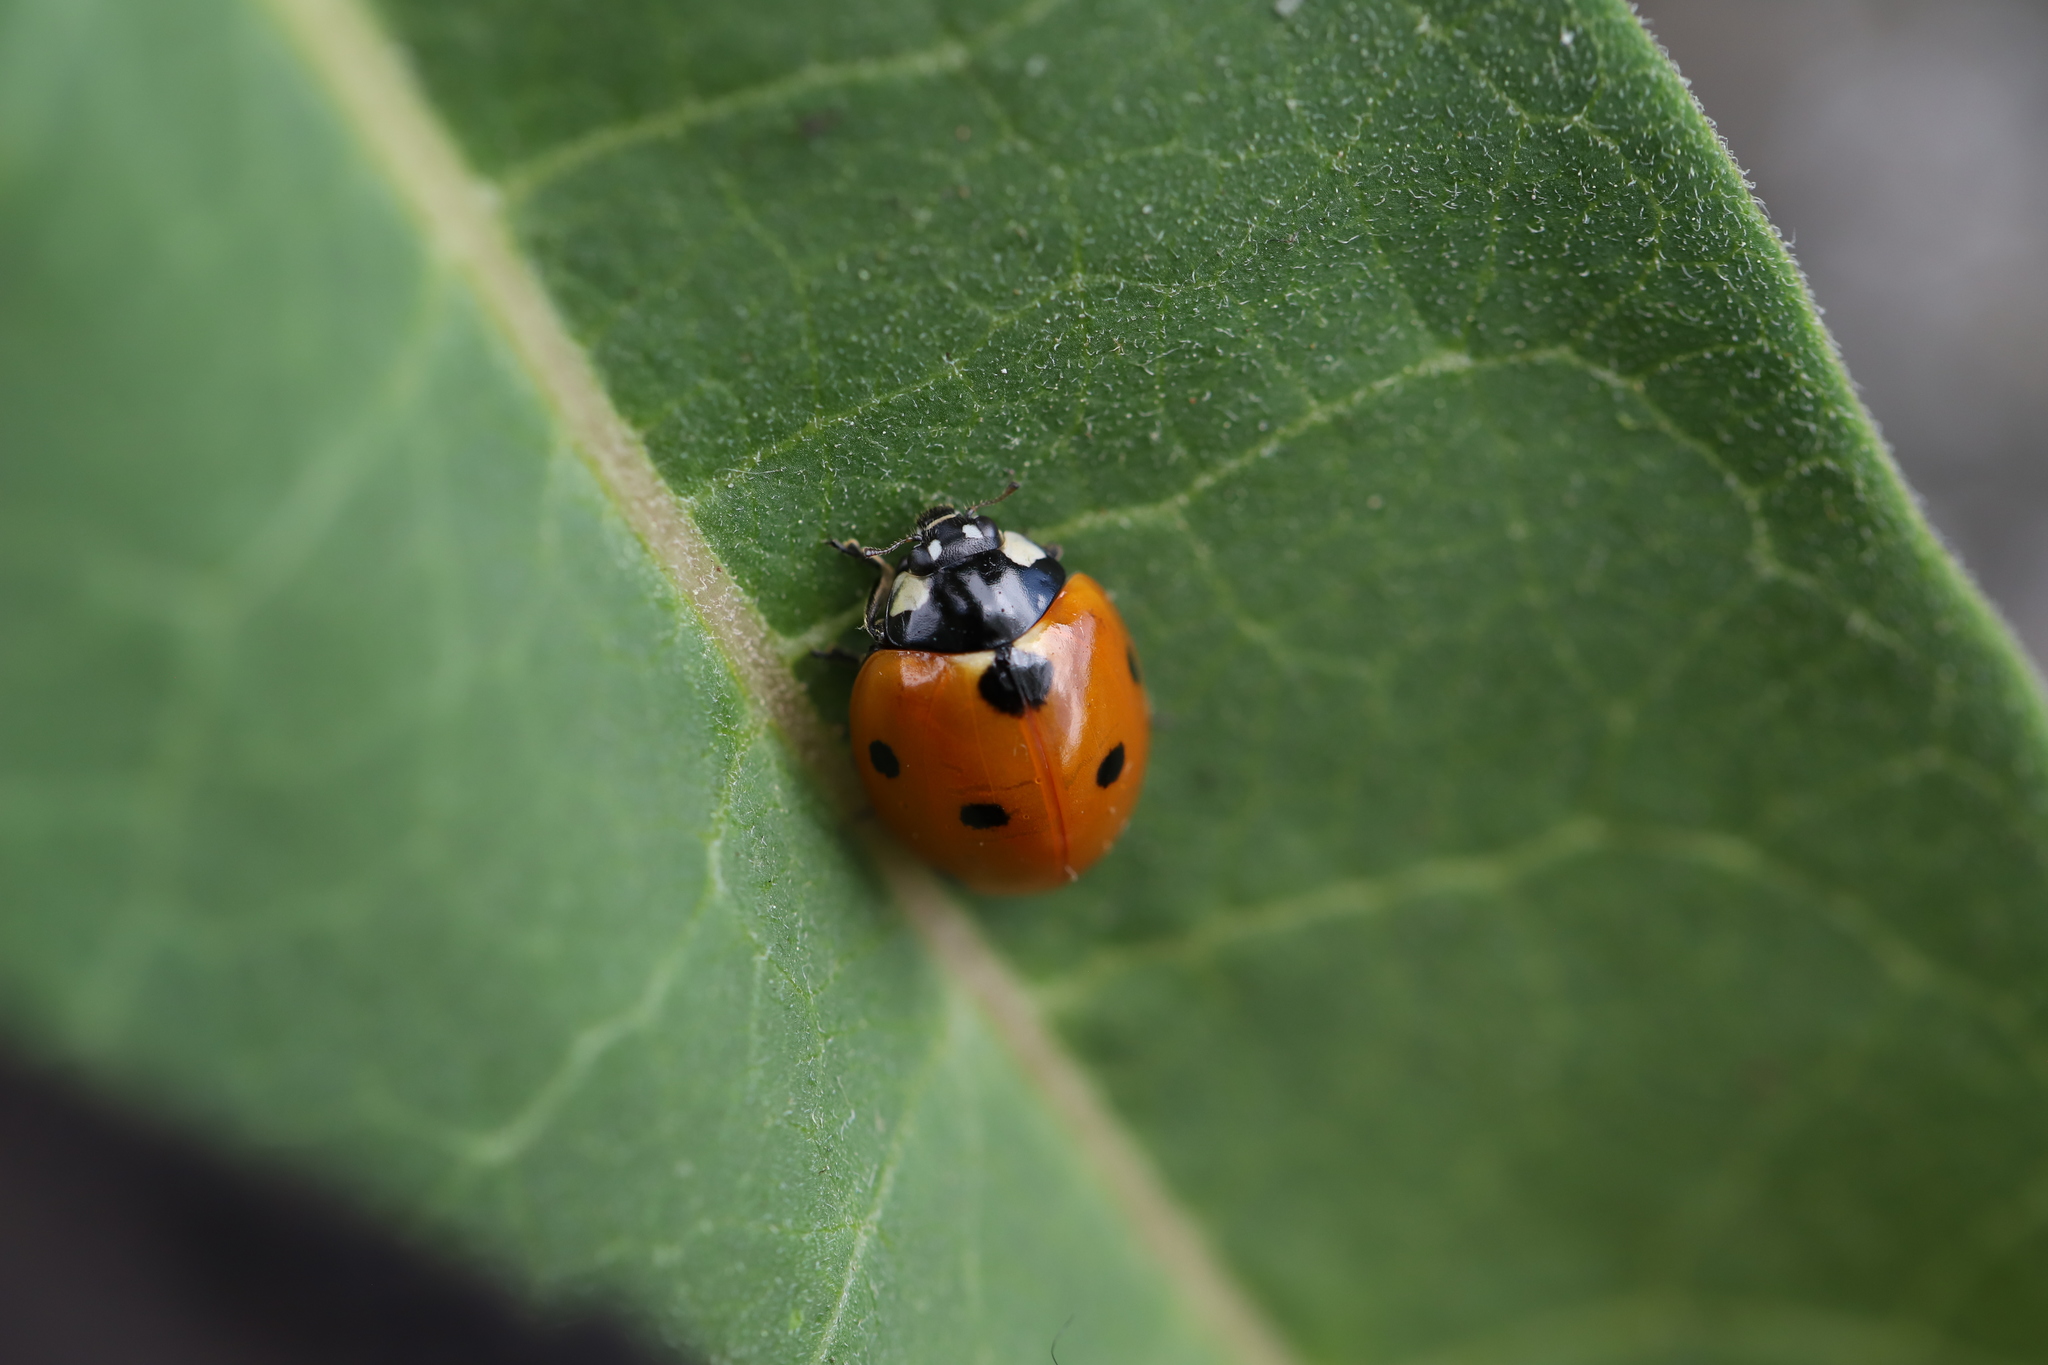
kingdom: Animalia
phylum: Arthropoda
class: Insecta
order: Coleoptera
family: Coccinellidae
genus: Coccinella
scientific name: Coccinella septempunctata
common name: Sevenspotted lady beetle
